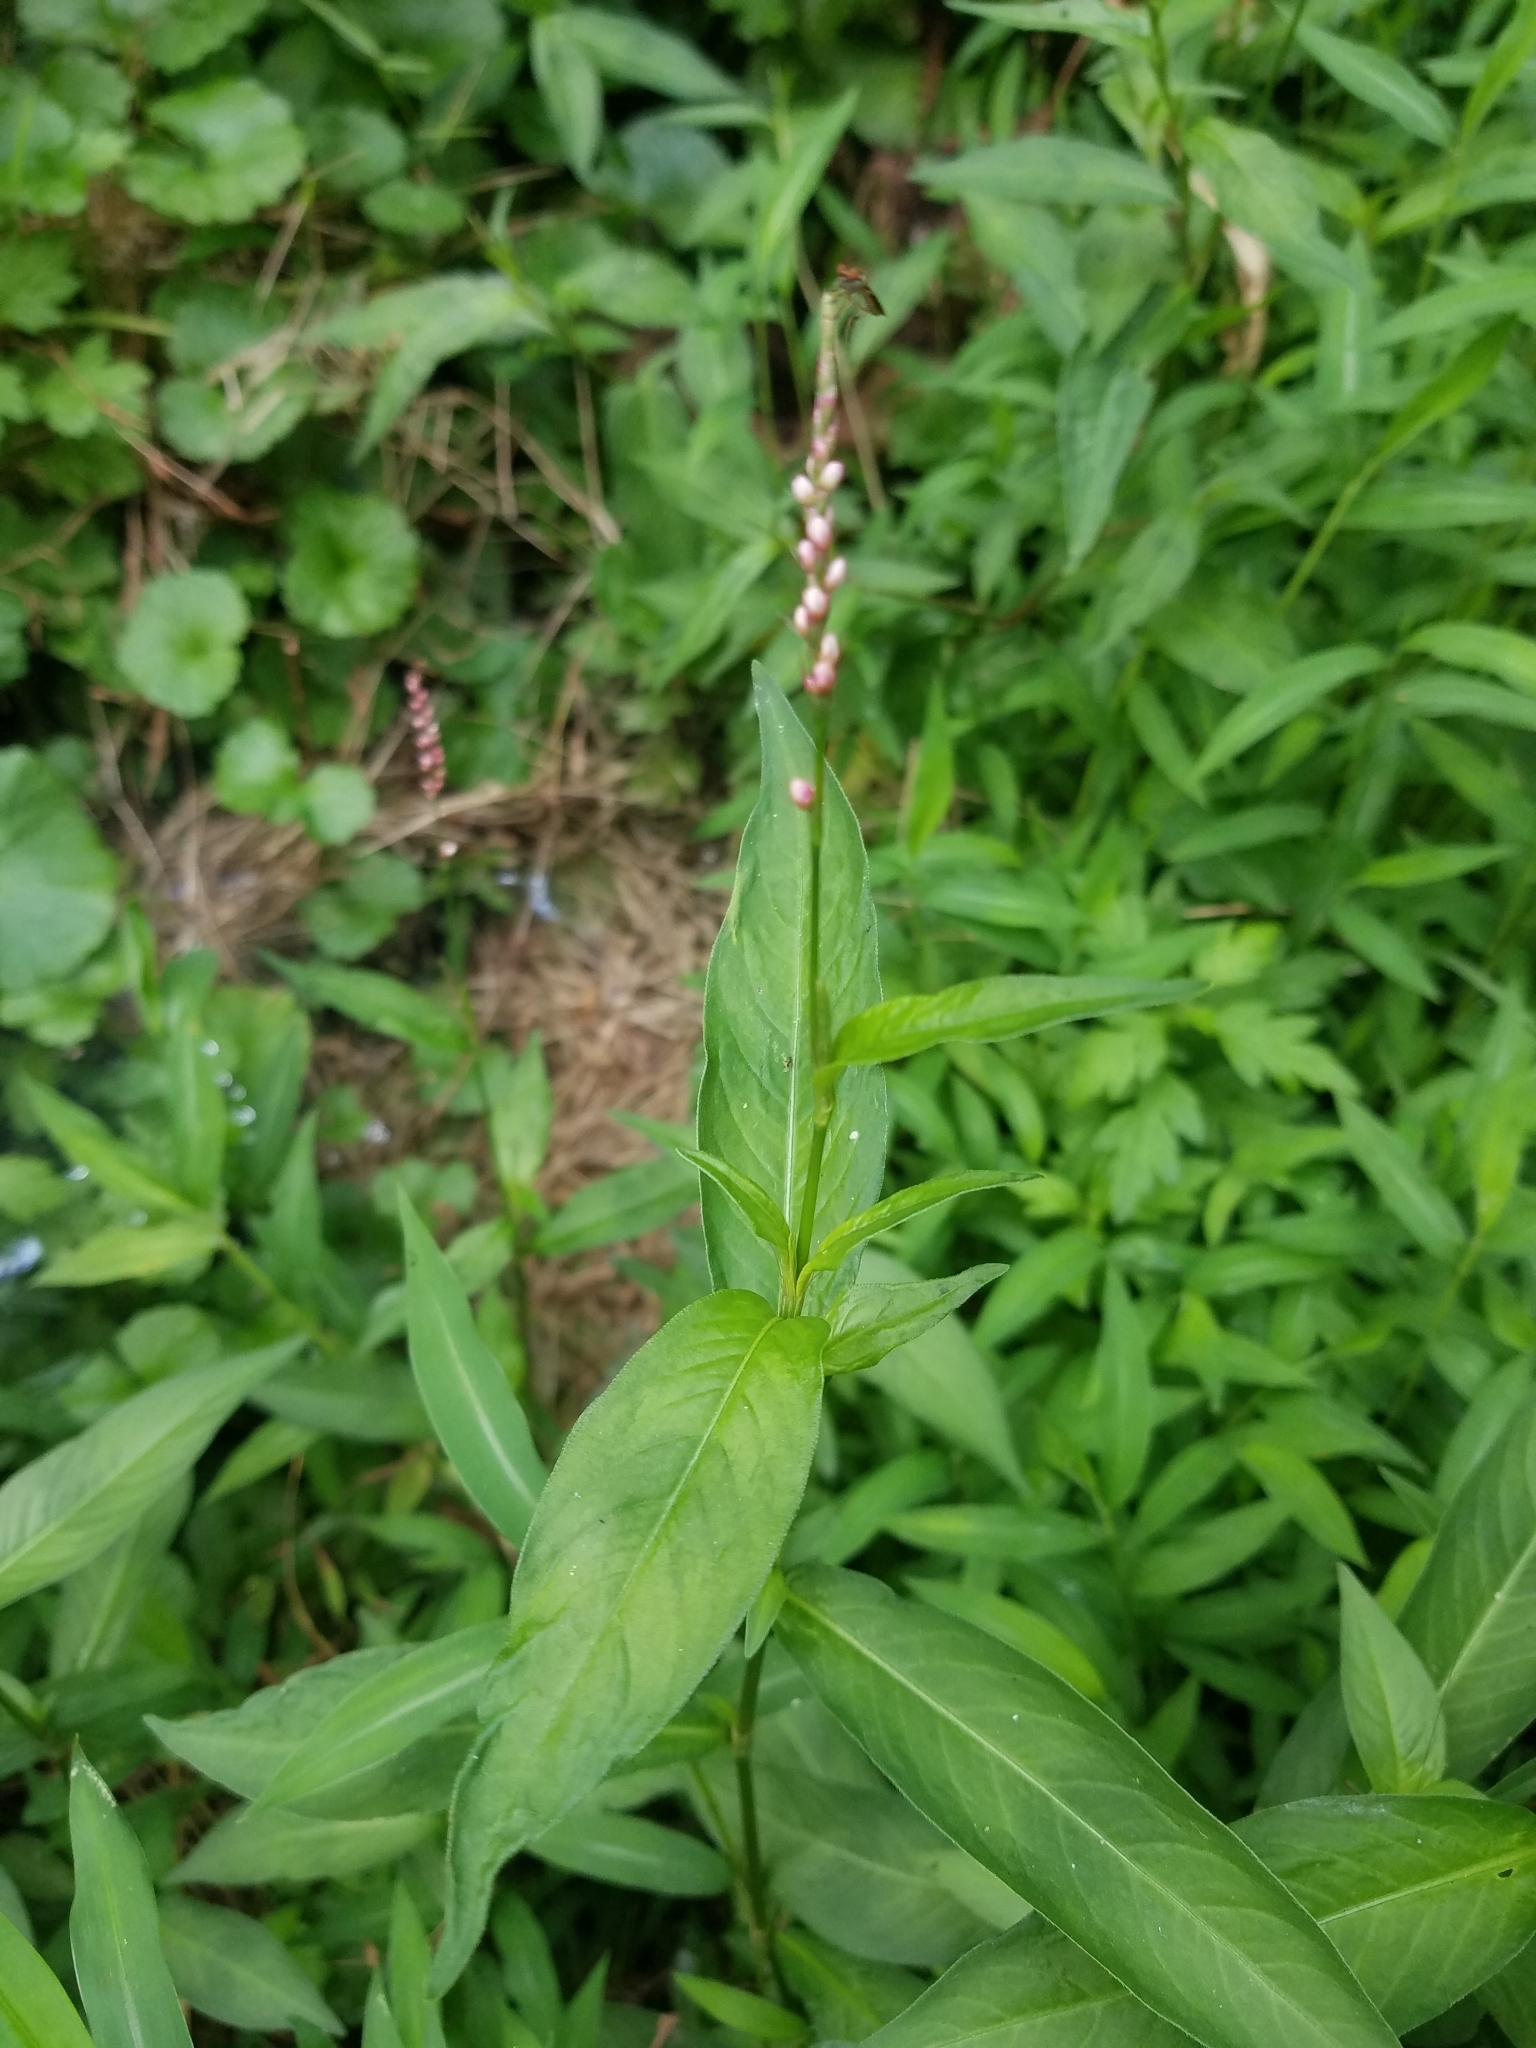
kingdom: Plantae
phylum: Tracheophyta
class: Magnoliopsida
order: Caryophyllales
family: Polygonaceae
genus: Persicaria
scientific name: Persicaria longiseta
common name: Bristly lady's-thumb
